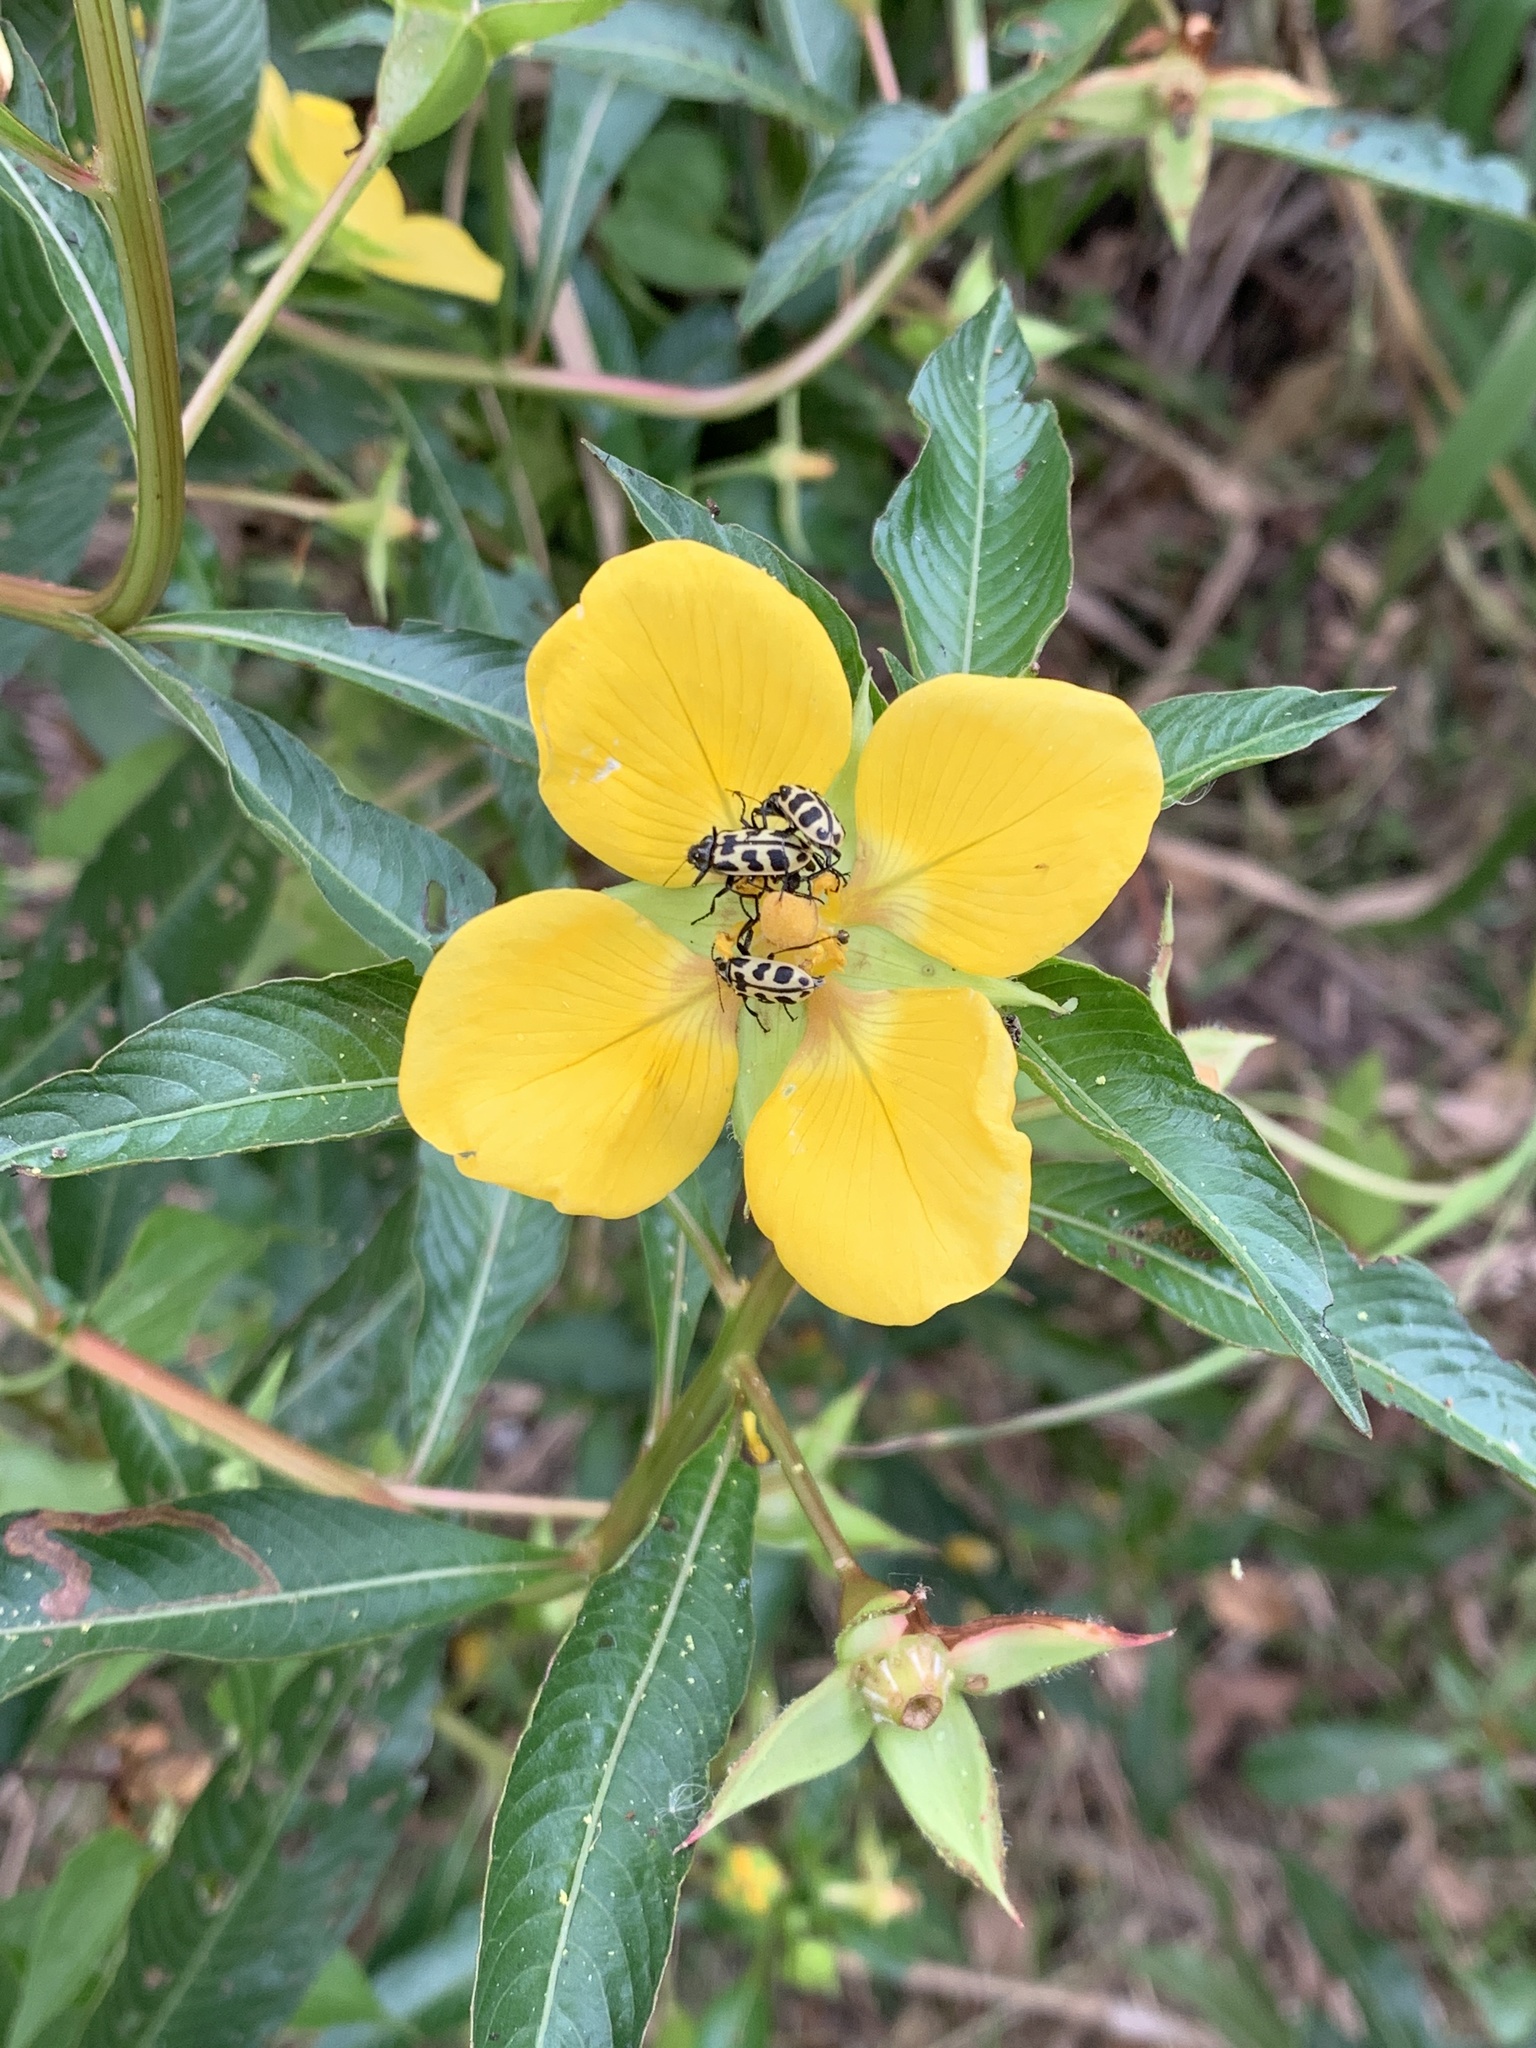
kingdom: Animalia
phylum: Arthropoda
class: Insecta
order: Coleoptera
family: Melyridae
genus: Astylus
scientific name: Astylus atromaculatus
